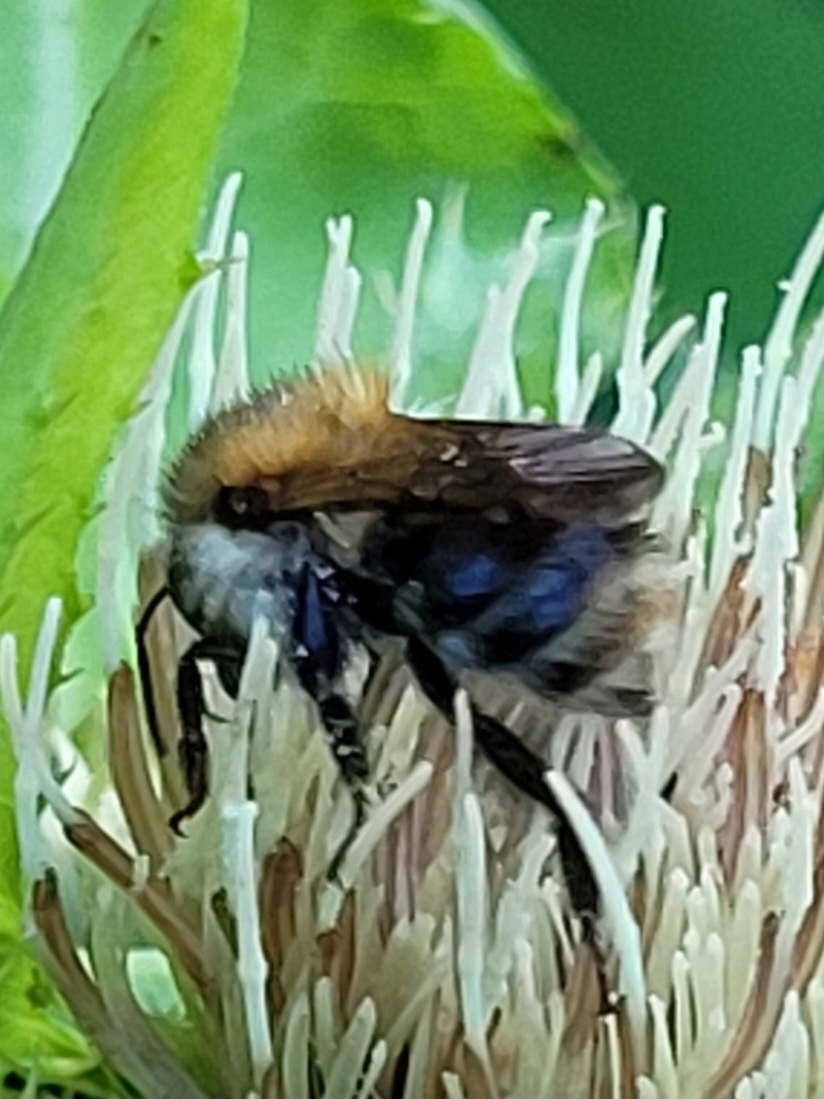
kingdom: Animalia
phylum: Arthropoda
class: Insecta
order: Hymenoptera
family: Apidae
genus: Bombus
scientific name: Bombus pascuorum
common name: Common carder bee
